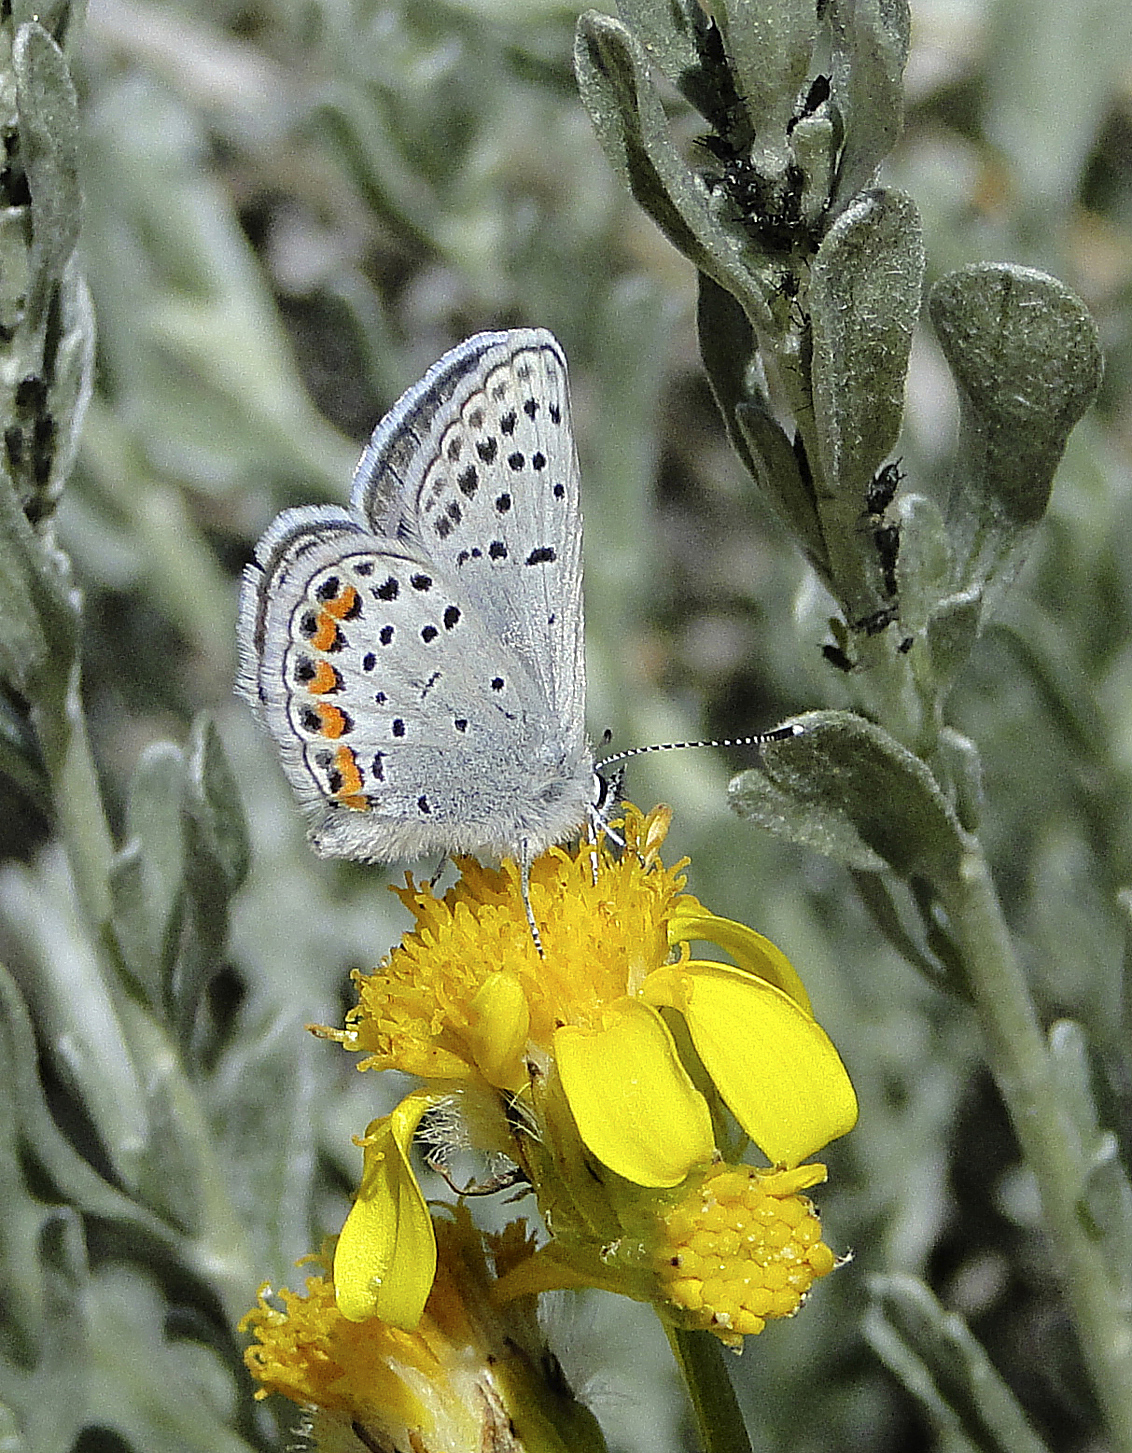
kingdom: Animalia
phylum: Arthropoda
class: Insecta
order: Lepidoptera
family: Lycaenidae
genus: Icaricia
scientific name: Icaricia acmon
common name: Acmon blue
